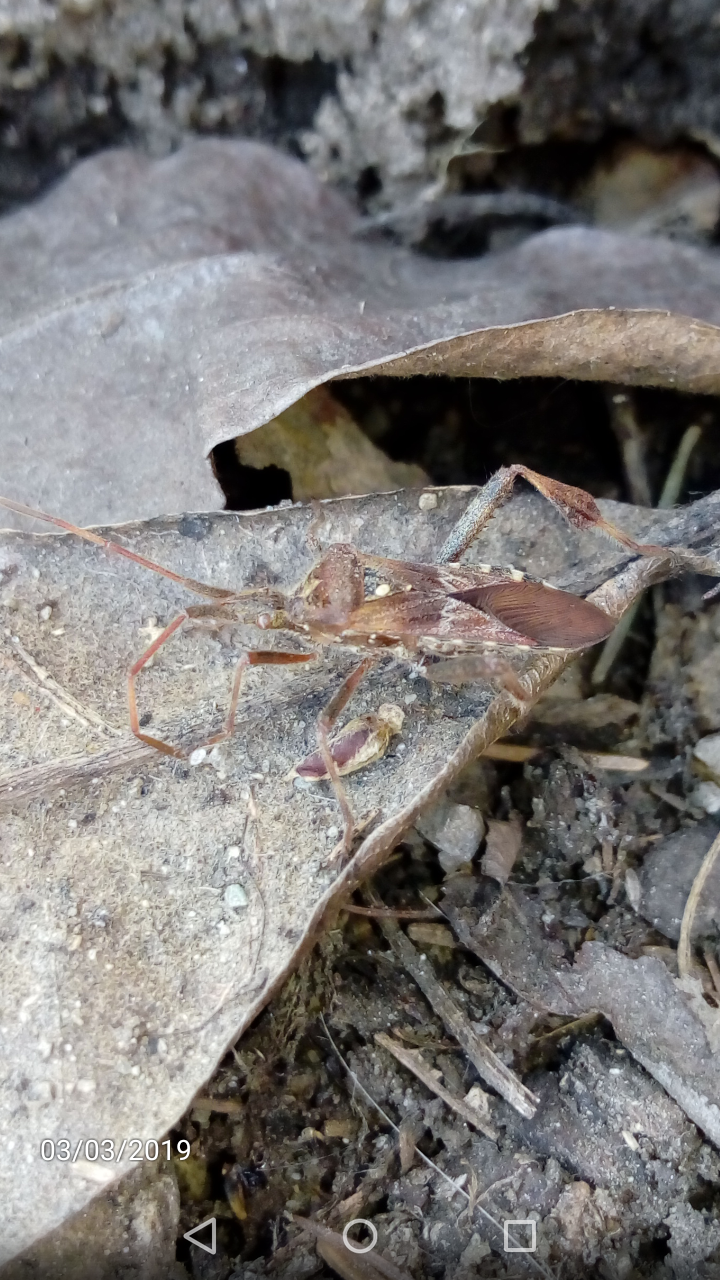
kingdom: Animalia
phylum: Arthropoda
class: Insecta
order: Hemiptera
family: Coreidae
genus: Leptoglossus
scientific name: Leptoglossus occidentalis
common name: Western conifer-seed bug
